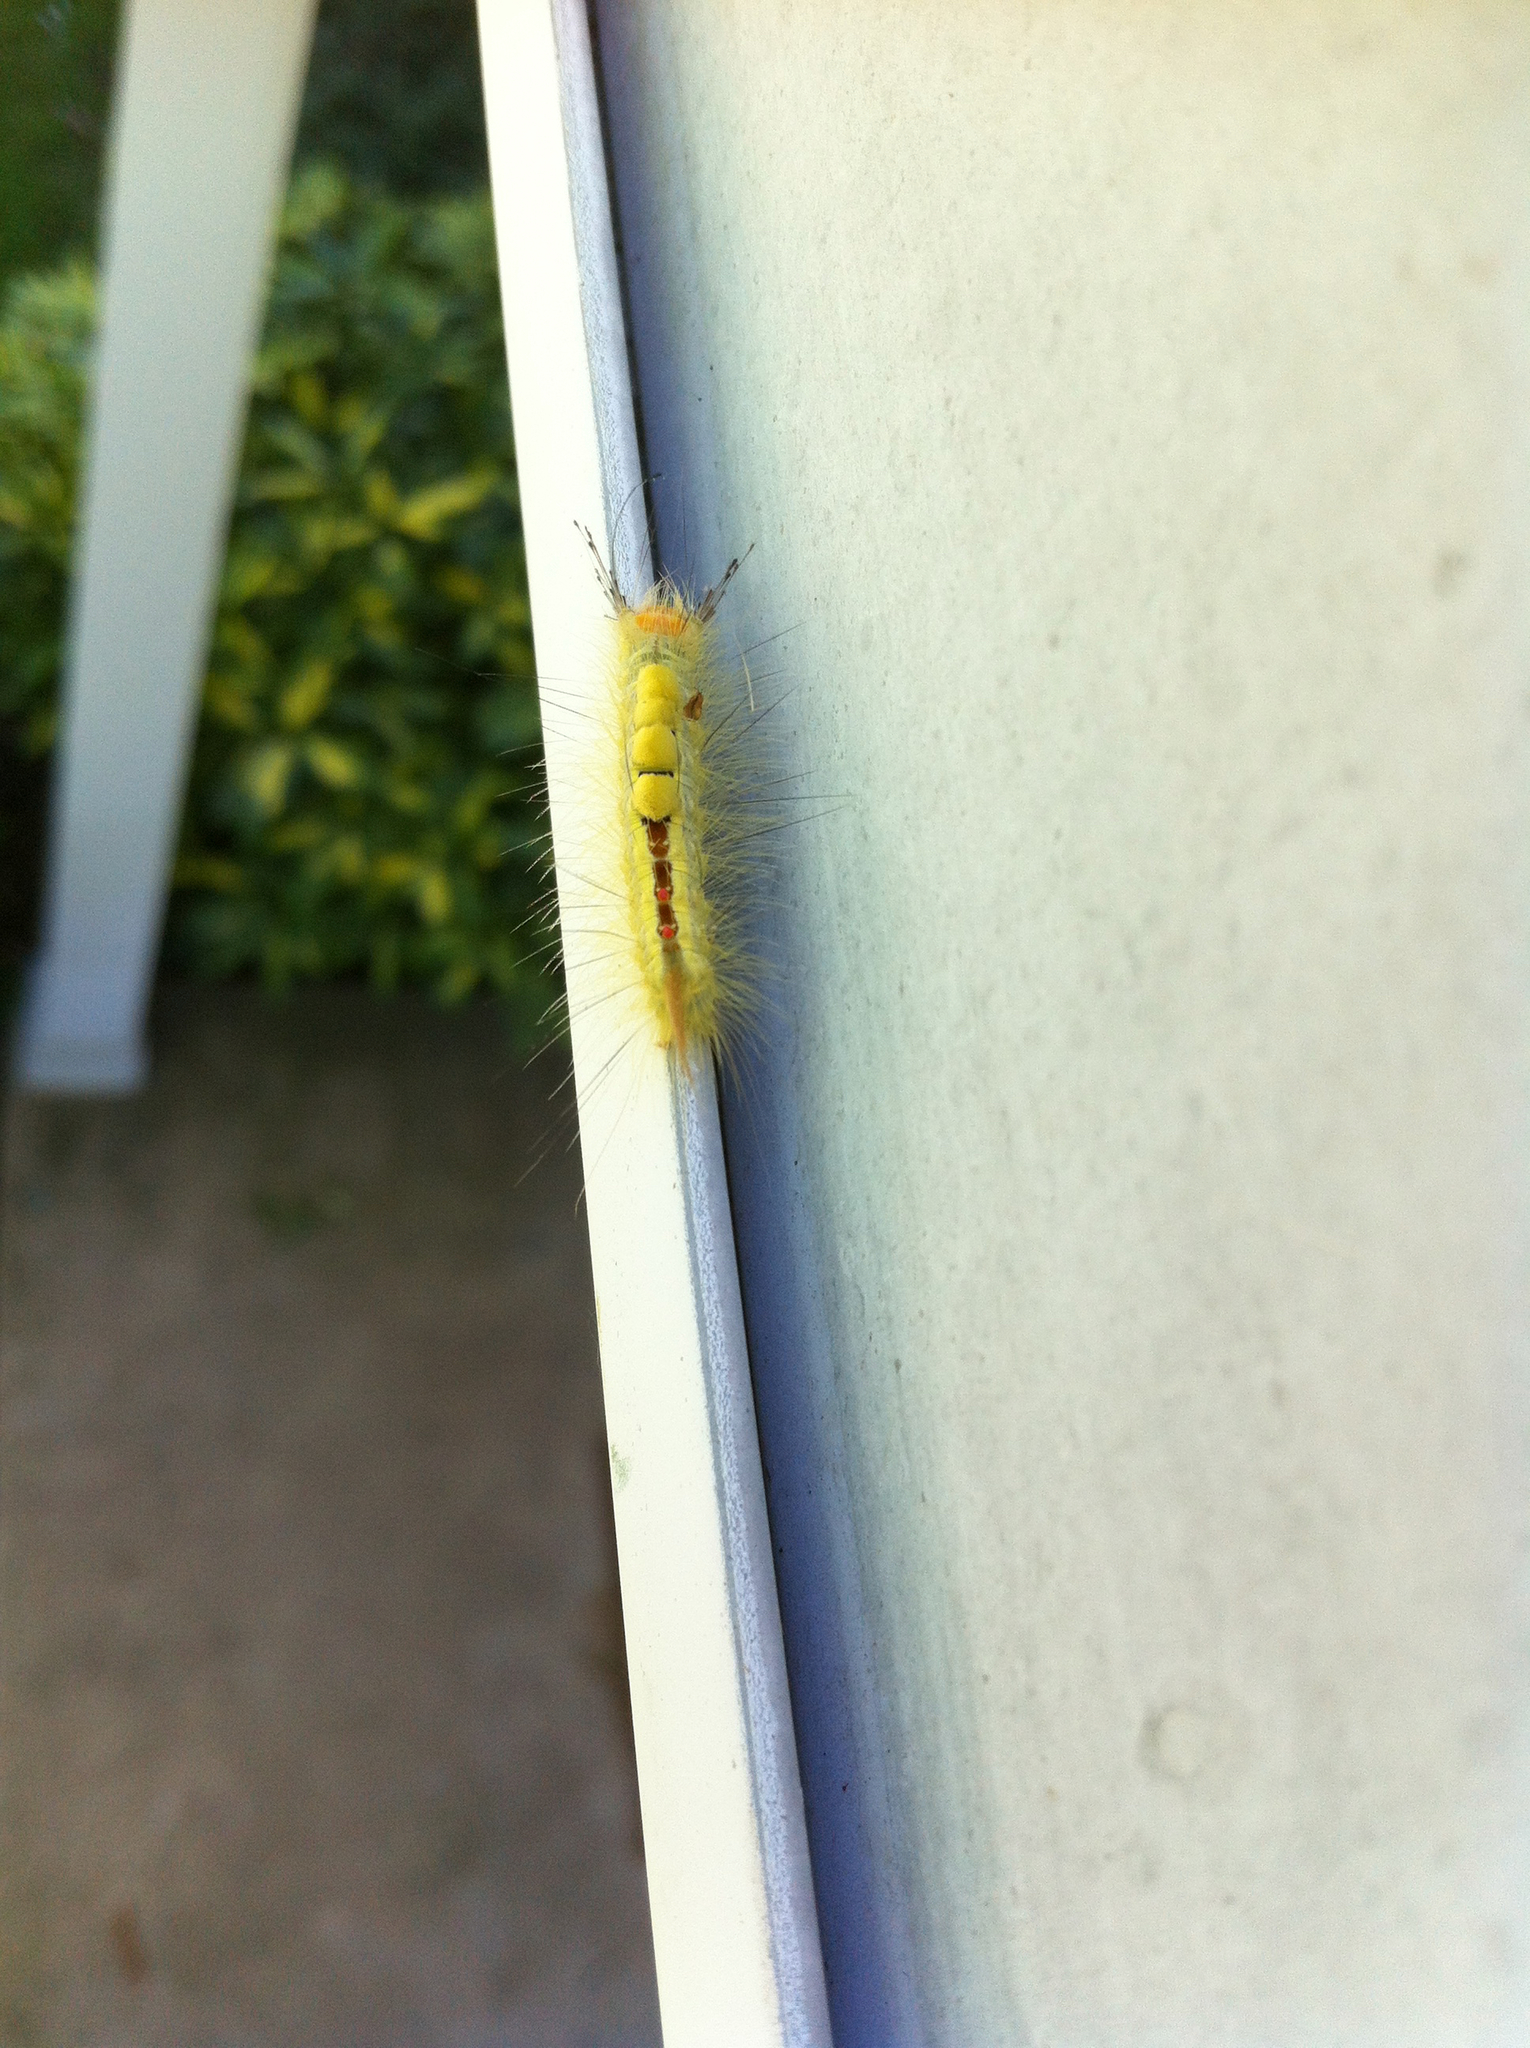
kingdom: Animalia
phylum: Arthropoda
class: Insecta
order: Lepidoptera
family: Erebidae
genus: Orgyia
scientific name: Orgyia leucostigma
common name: White-marked tussock moth
